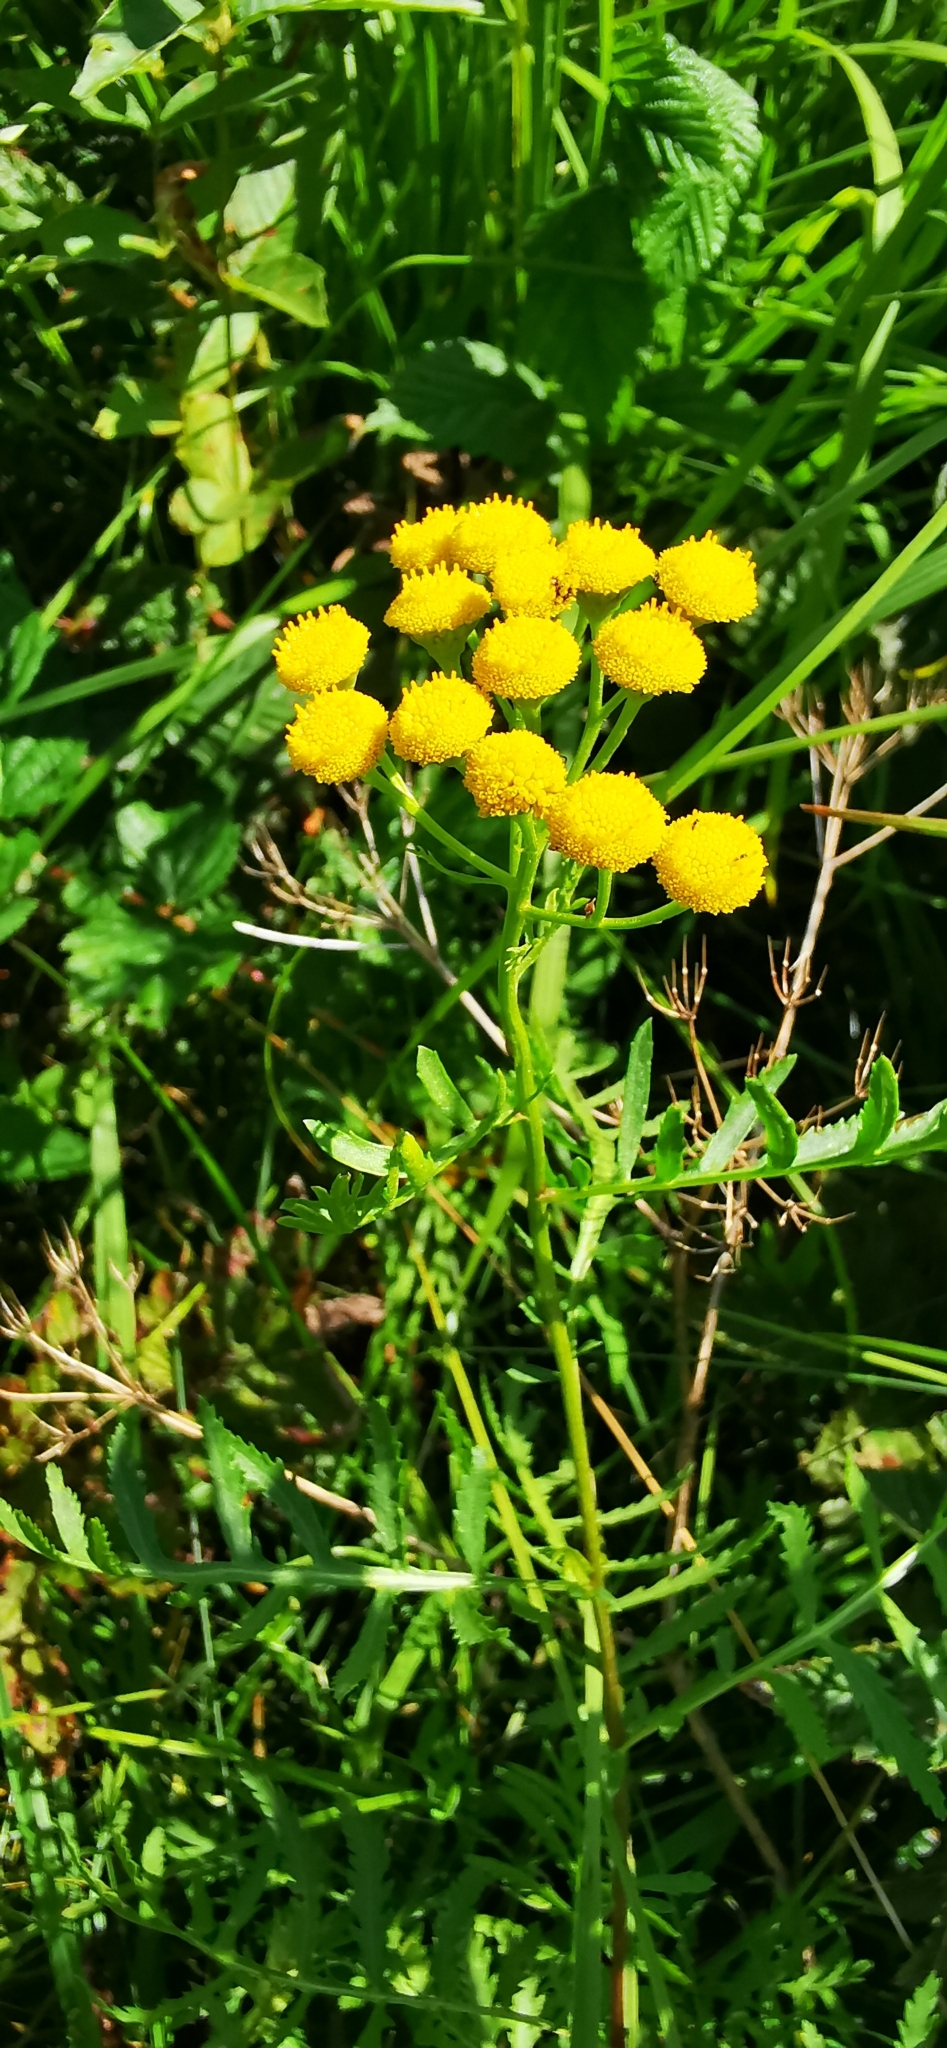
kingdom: Plantae
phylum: Tracheophyta
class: Magnoliopsida
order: Asterales
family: Asteraceae
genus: Tanacetum
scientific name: Tanacetum vulgare
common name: Common tansy
